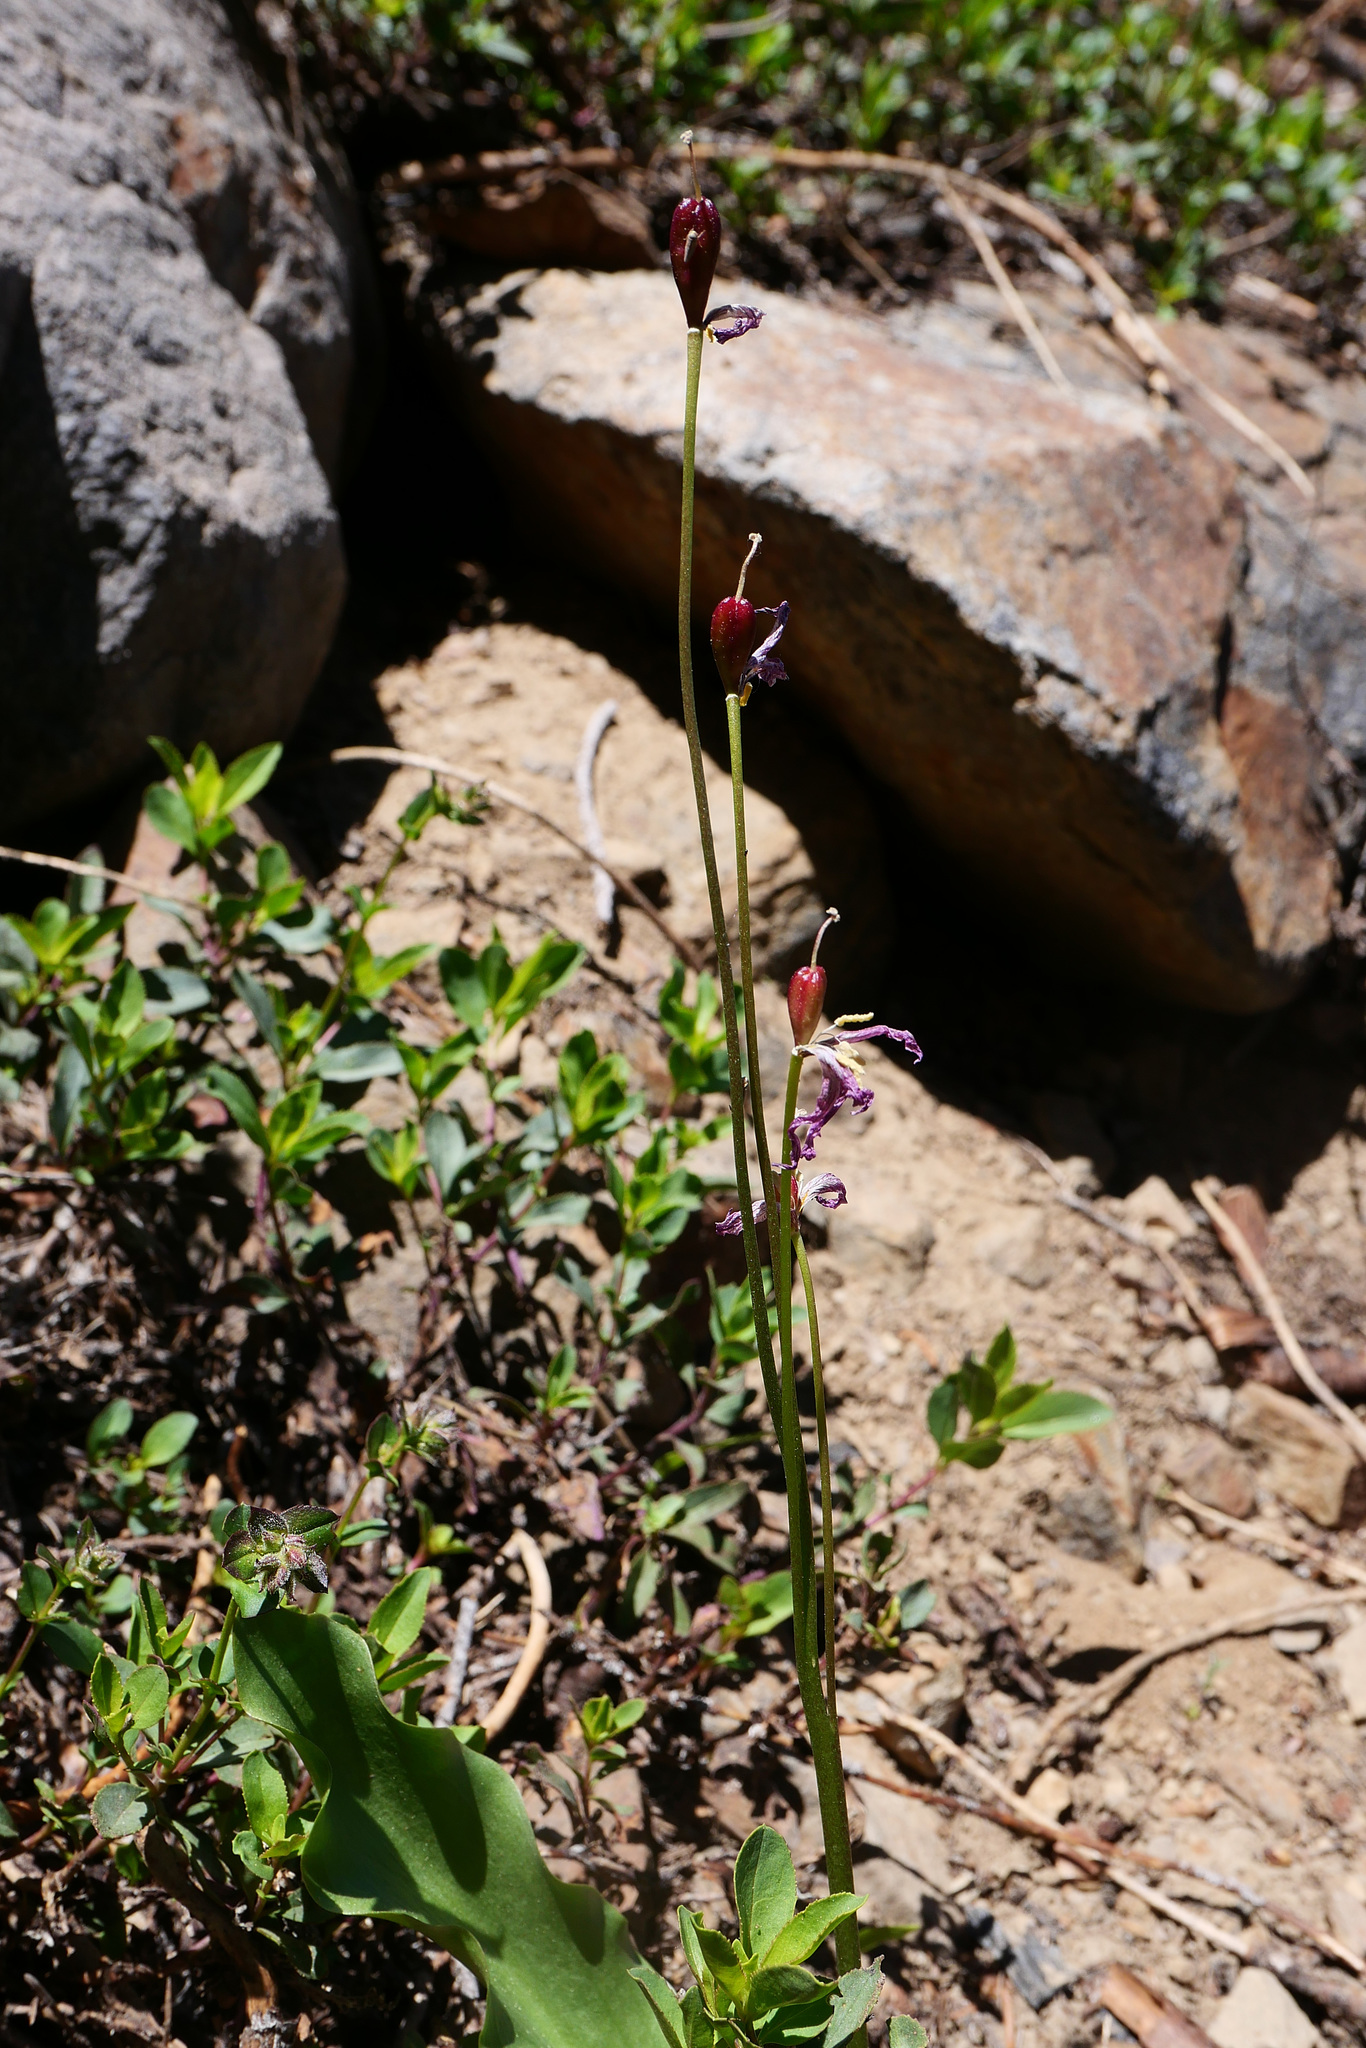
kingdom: Plantae
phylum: Tracheophyta
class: Liliopsida
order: Liliales
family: Liliaceae
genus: Erythronium
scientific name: Erythronium pusaterii
